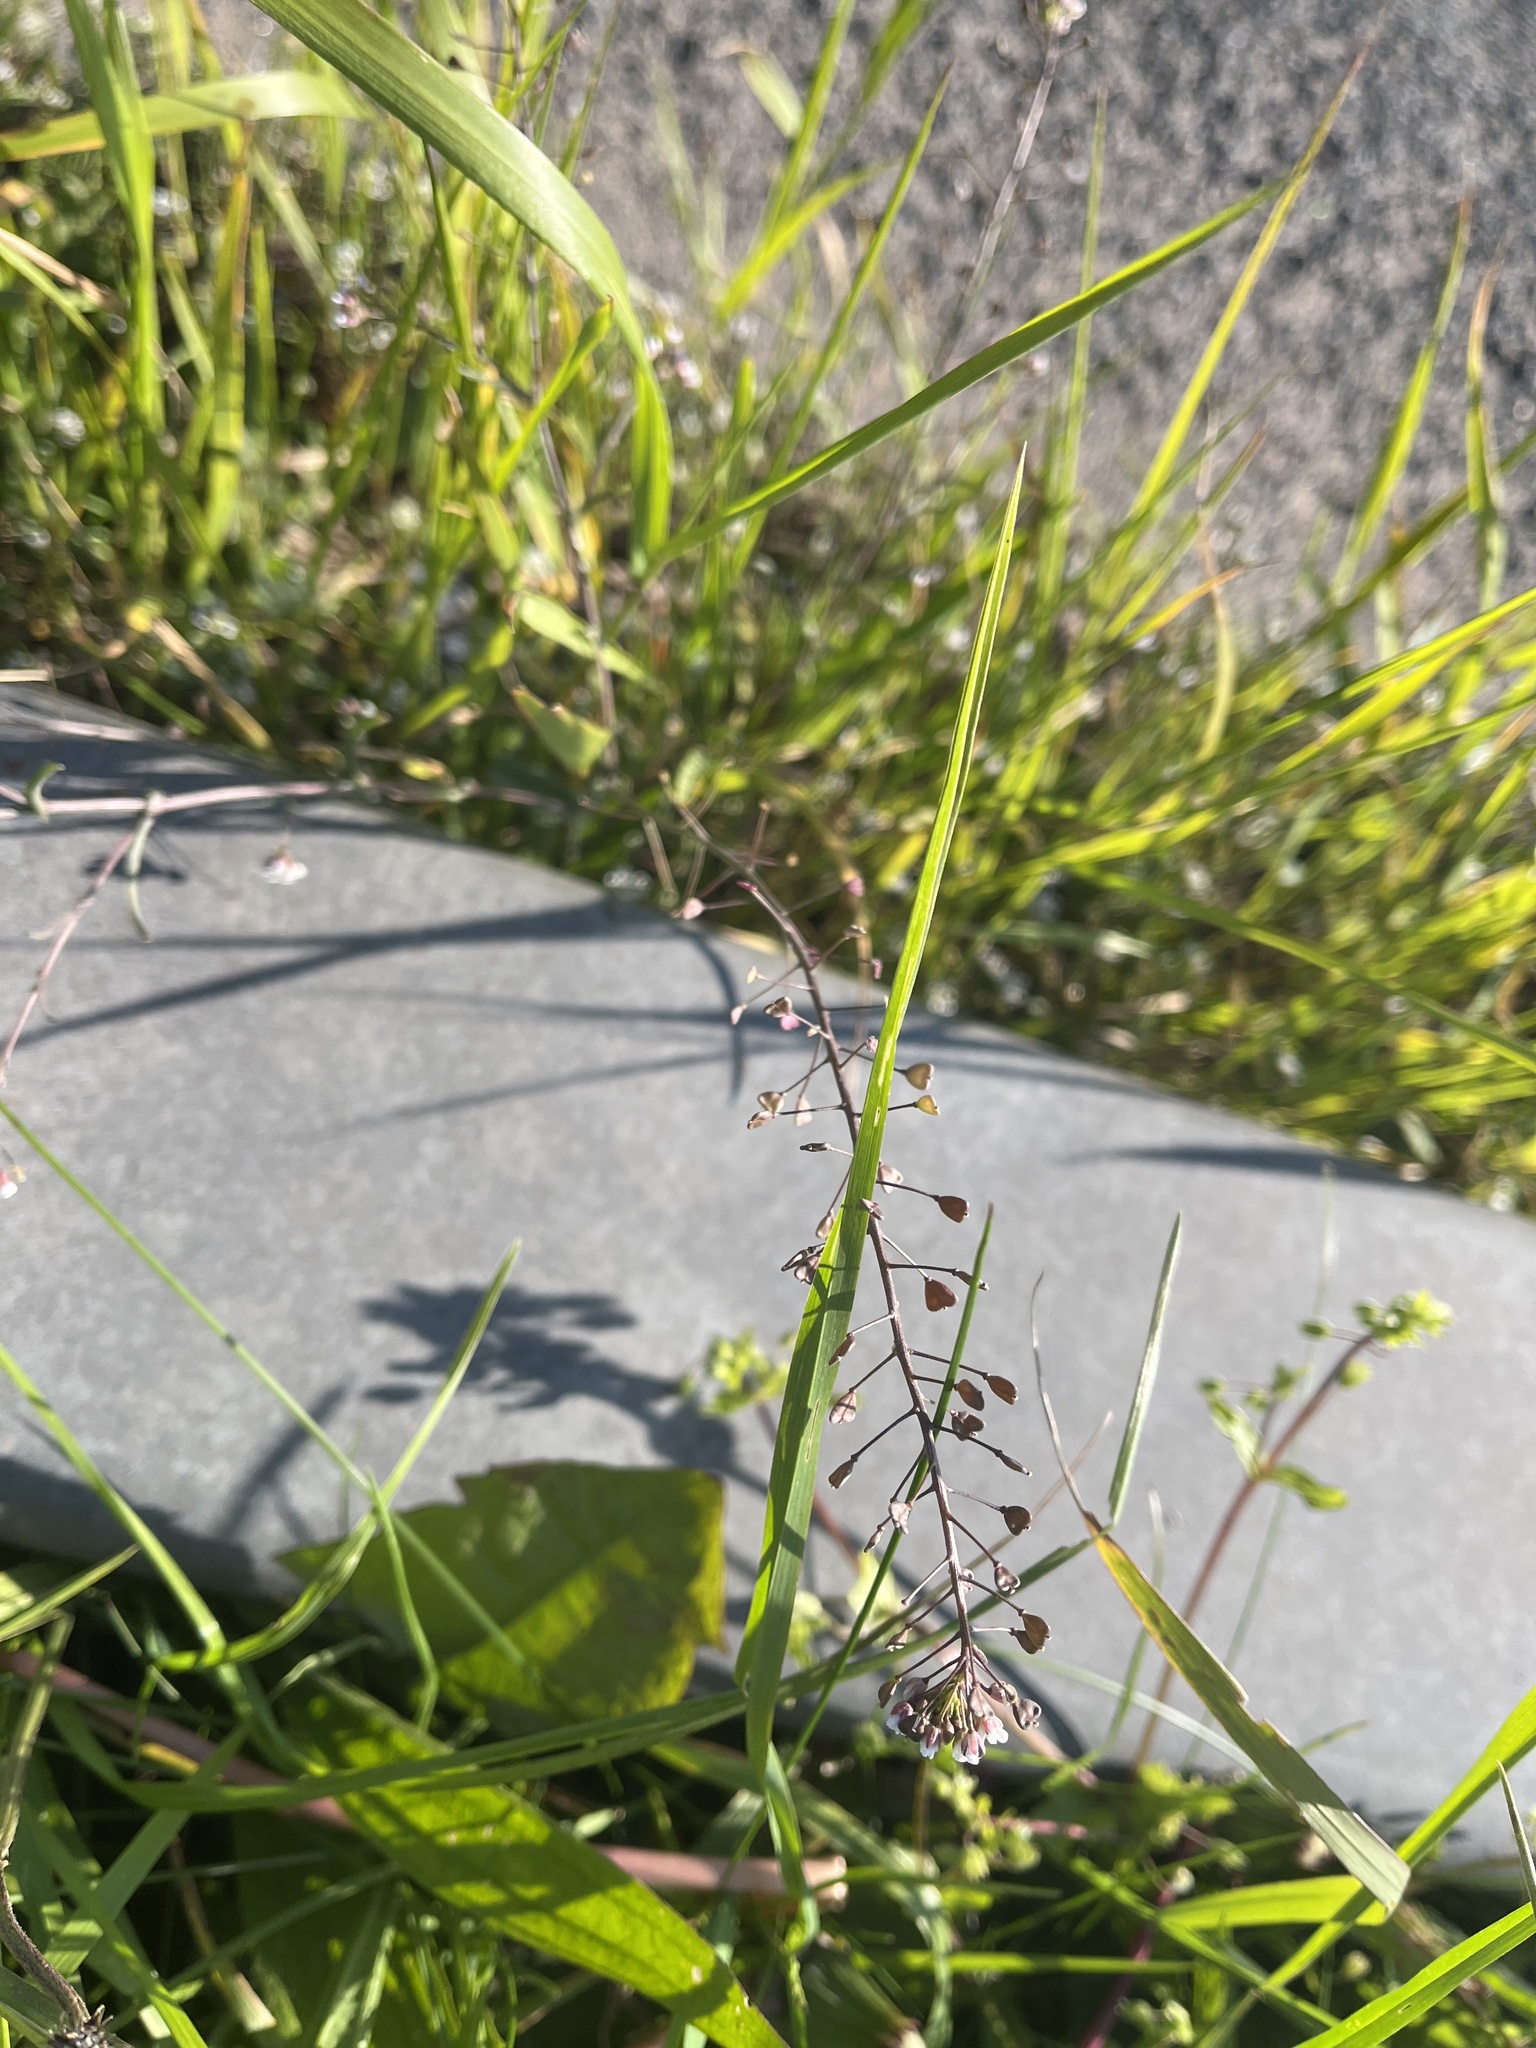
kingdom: Plantae
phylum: Tracheophyta
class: Magnoliopsida
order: Brassicales
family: Brassicaceae
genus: Capsella
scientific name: Capsella bursa-pastoris
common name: Shepherd's purse
